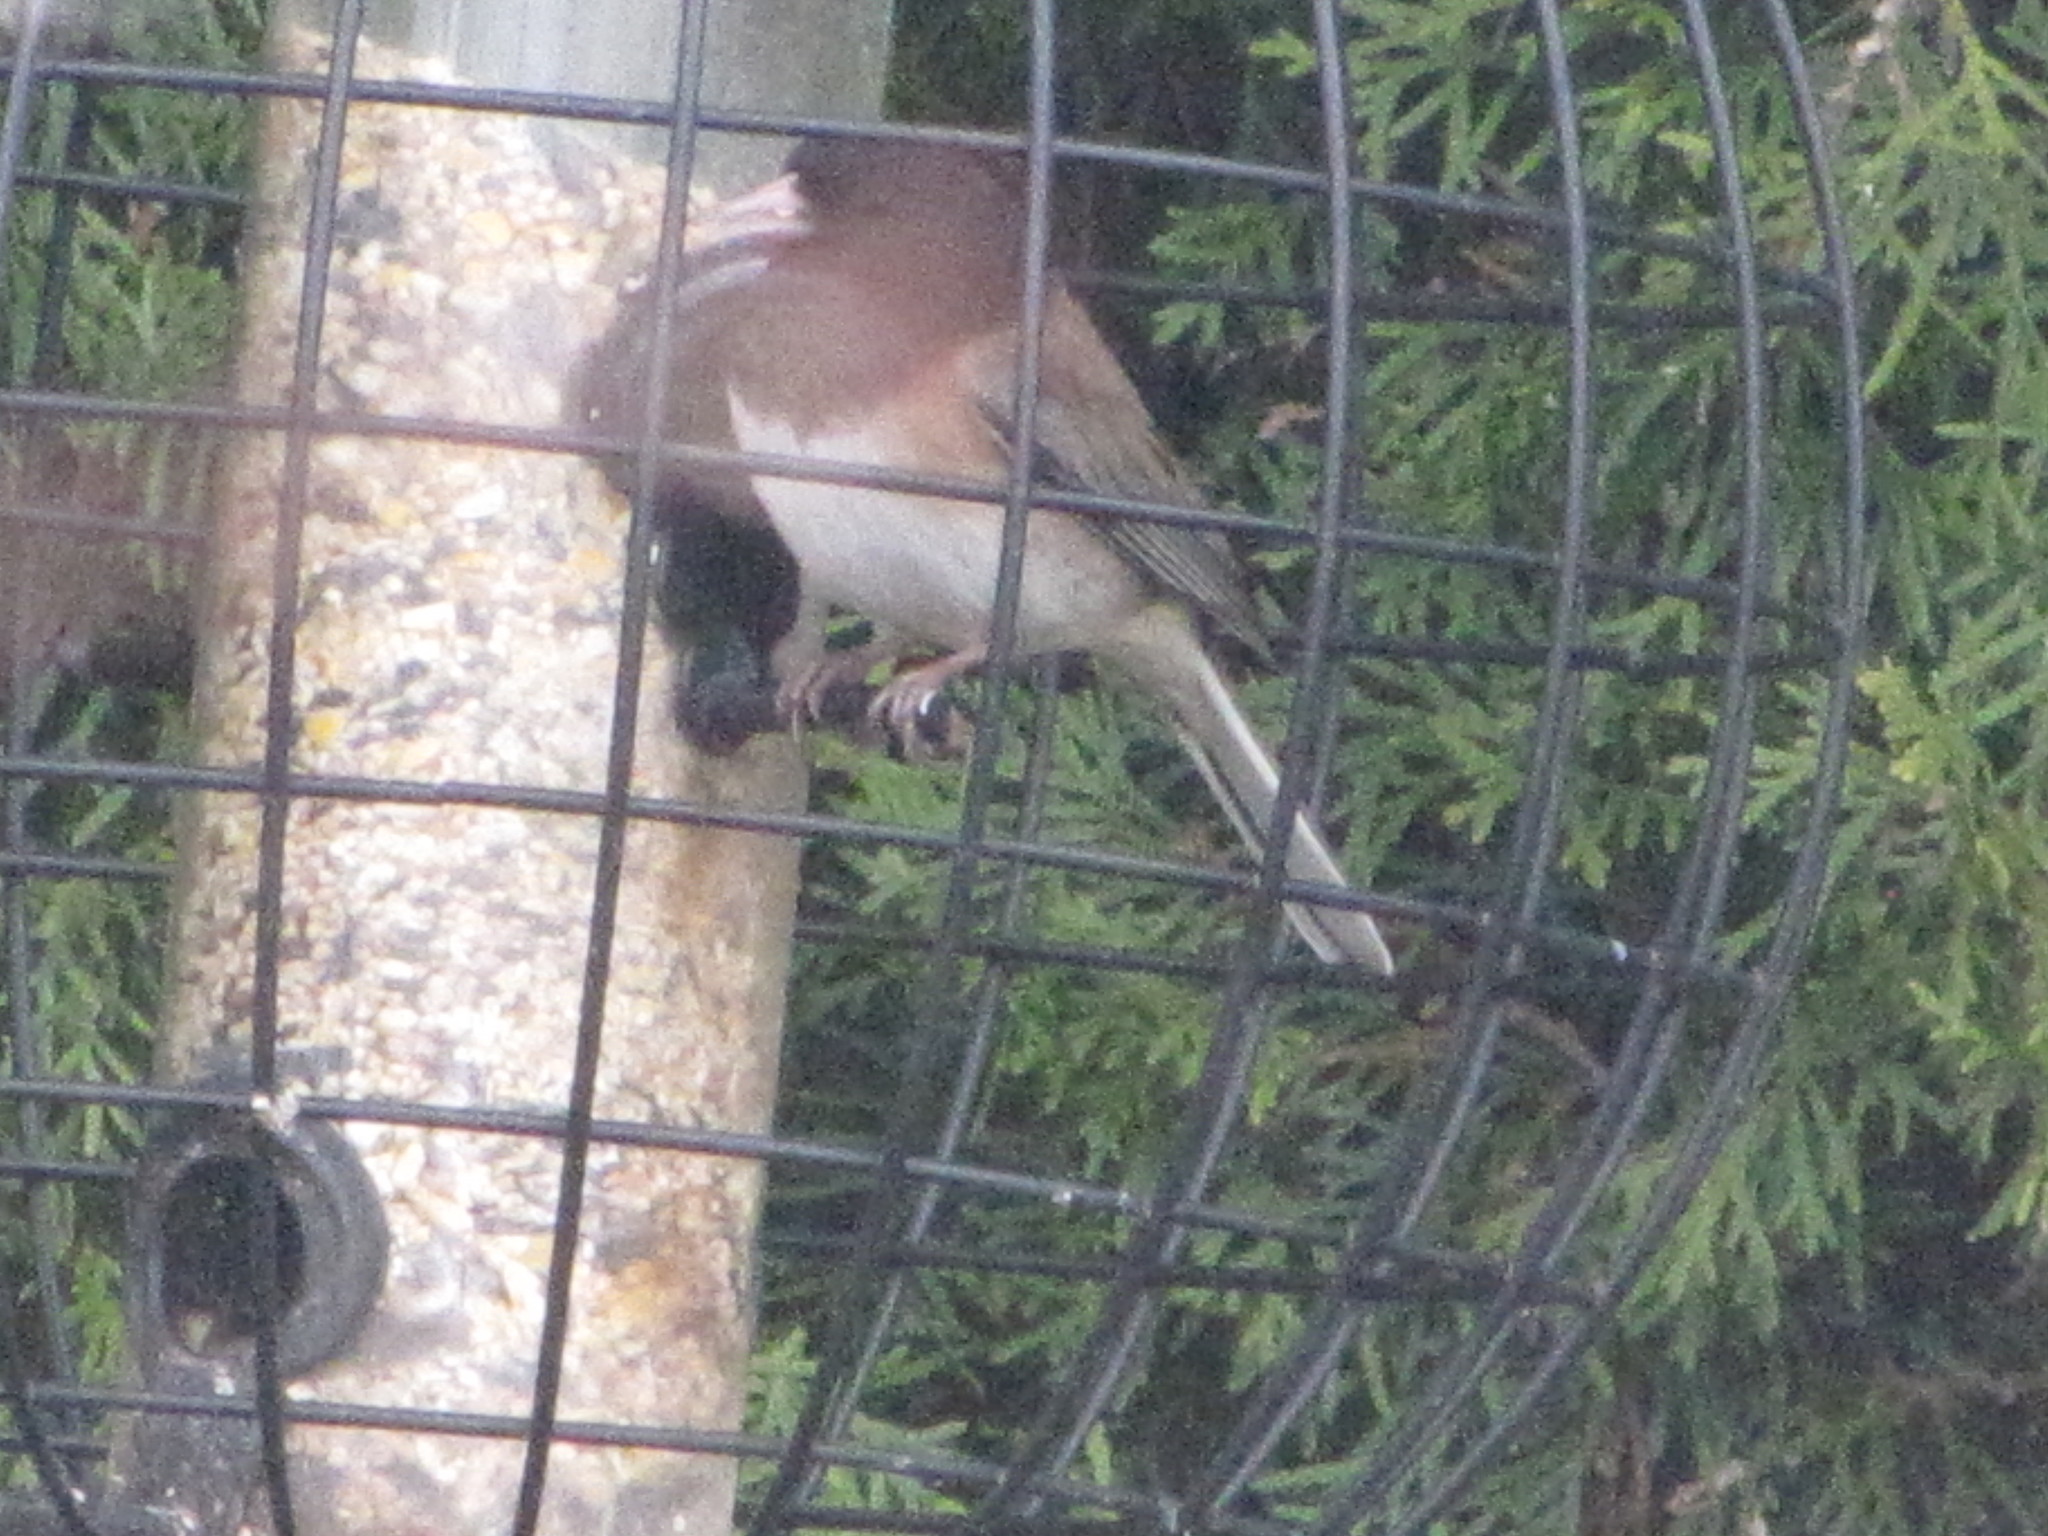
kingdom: Animalia
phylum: Chordata
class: Aves
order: Passeriformes
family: Passerellidae
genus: Junco
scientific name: Junco hyemalis
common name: Dark-eyed junco
